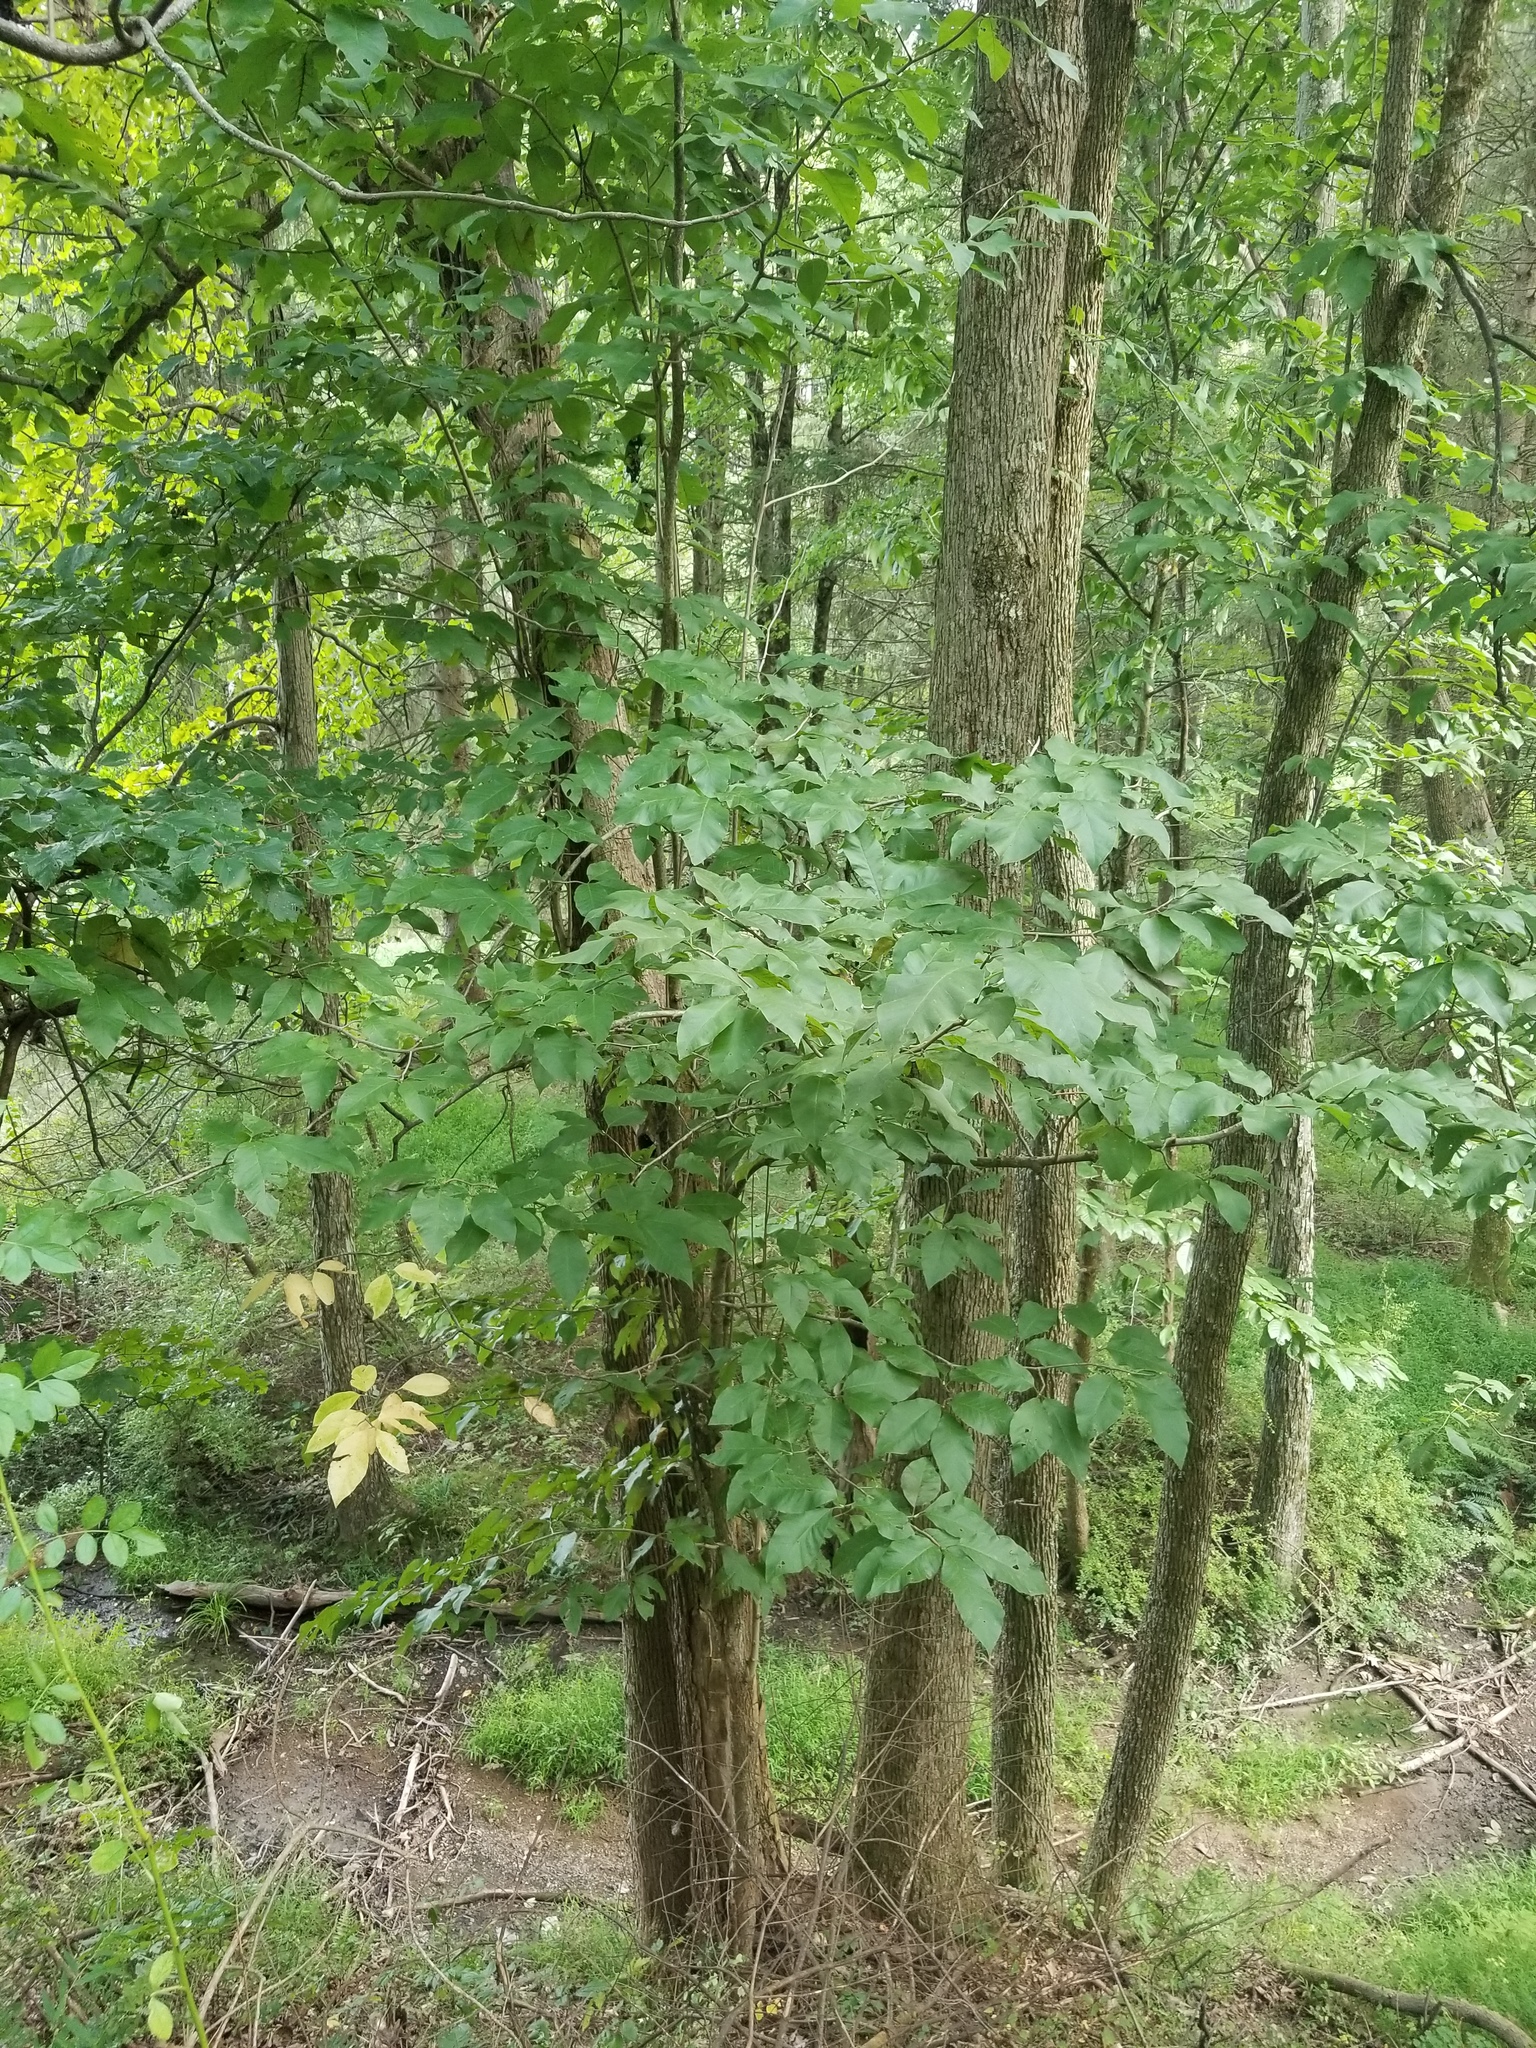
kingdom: Plantae
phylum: Tracheophyta
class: Magnoliopsida
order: Magnoliales
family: Magnoliaceae
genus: Magnolia
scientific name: Magnolia acuminata
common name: Cucumber magnolia
